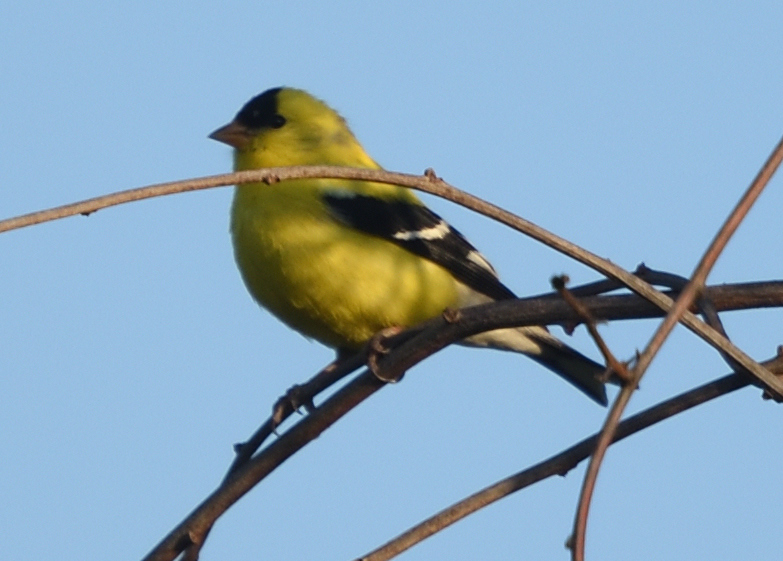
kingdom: Animalia
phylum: Chordata
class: Aves
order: Passeriformes
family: Fringillidae
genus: Spinus
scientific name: Spinus tristis
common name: American goldfinch
